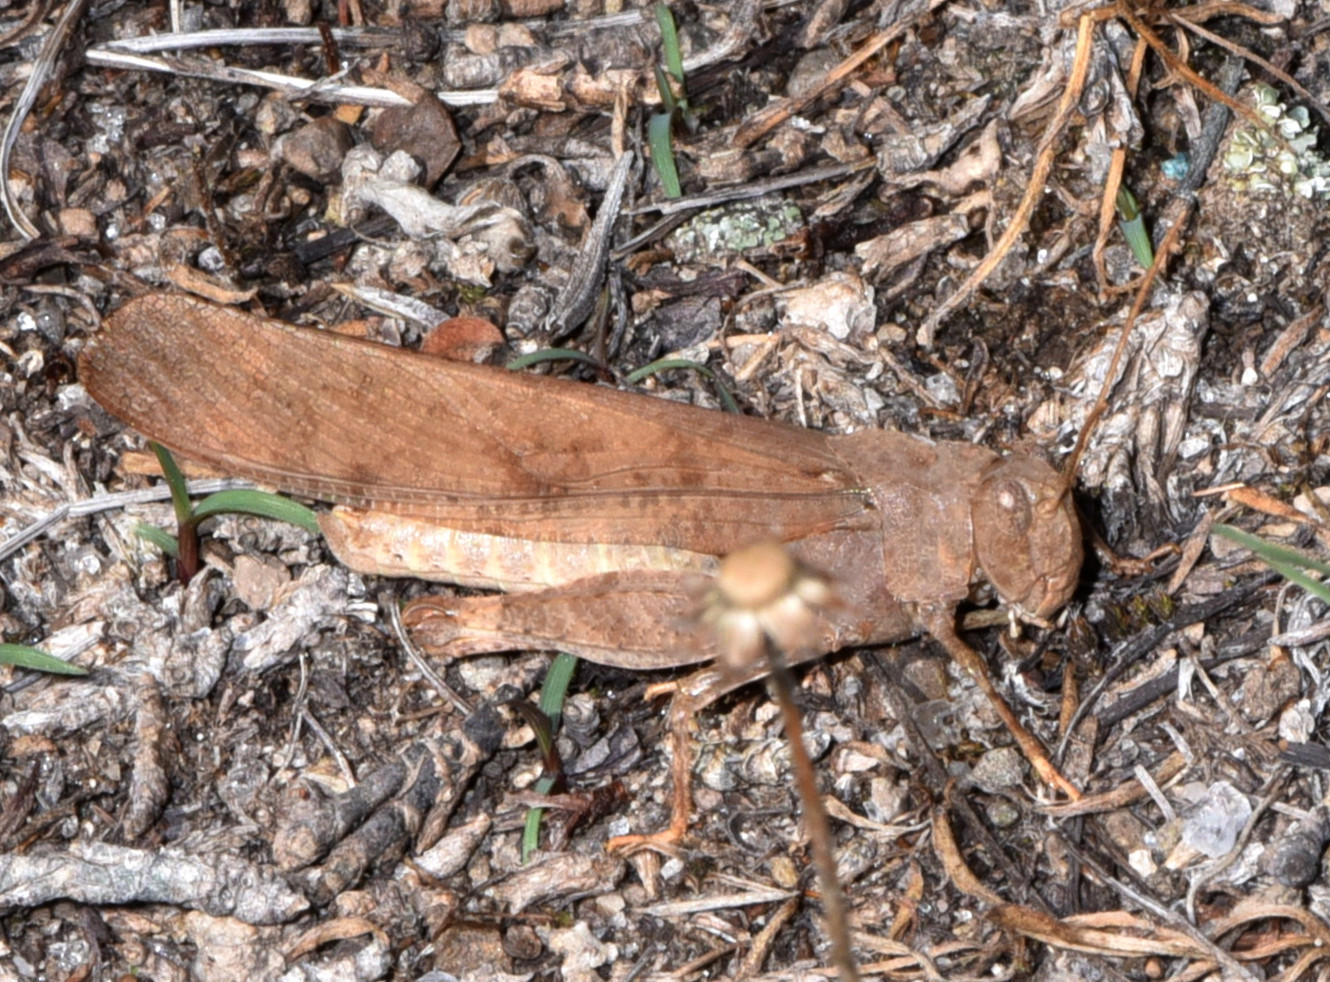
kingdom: Animalia
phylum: Arthropoda
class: Insecta
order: Orthoptera
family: Acrididae
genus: Dissosteira
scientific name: Dissosteira carolina
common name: Carolina grasshopper
